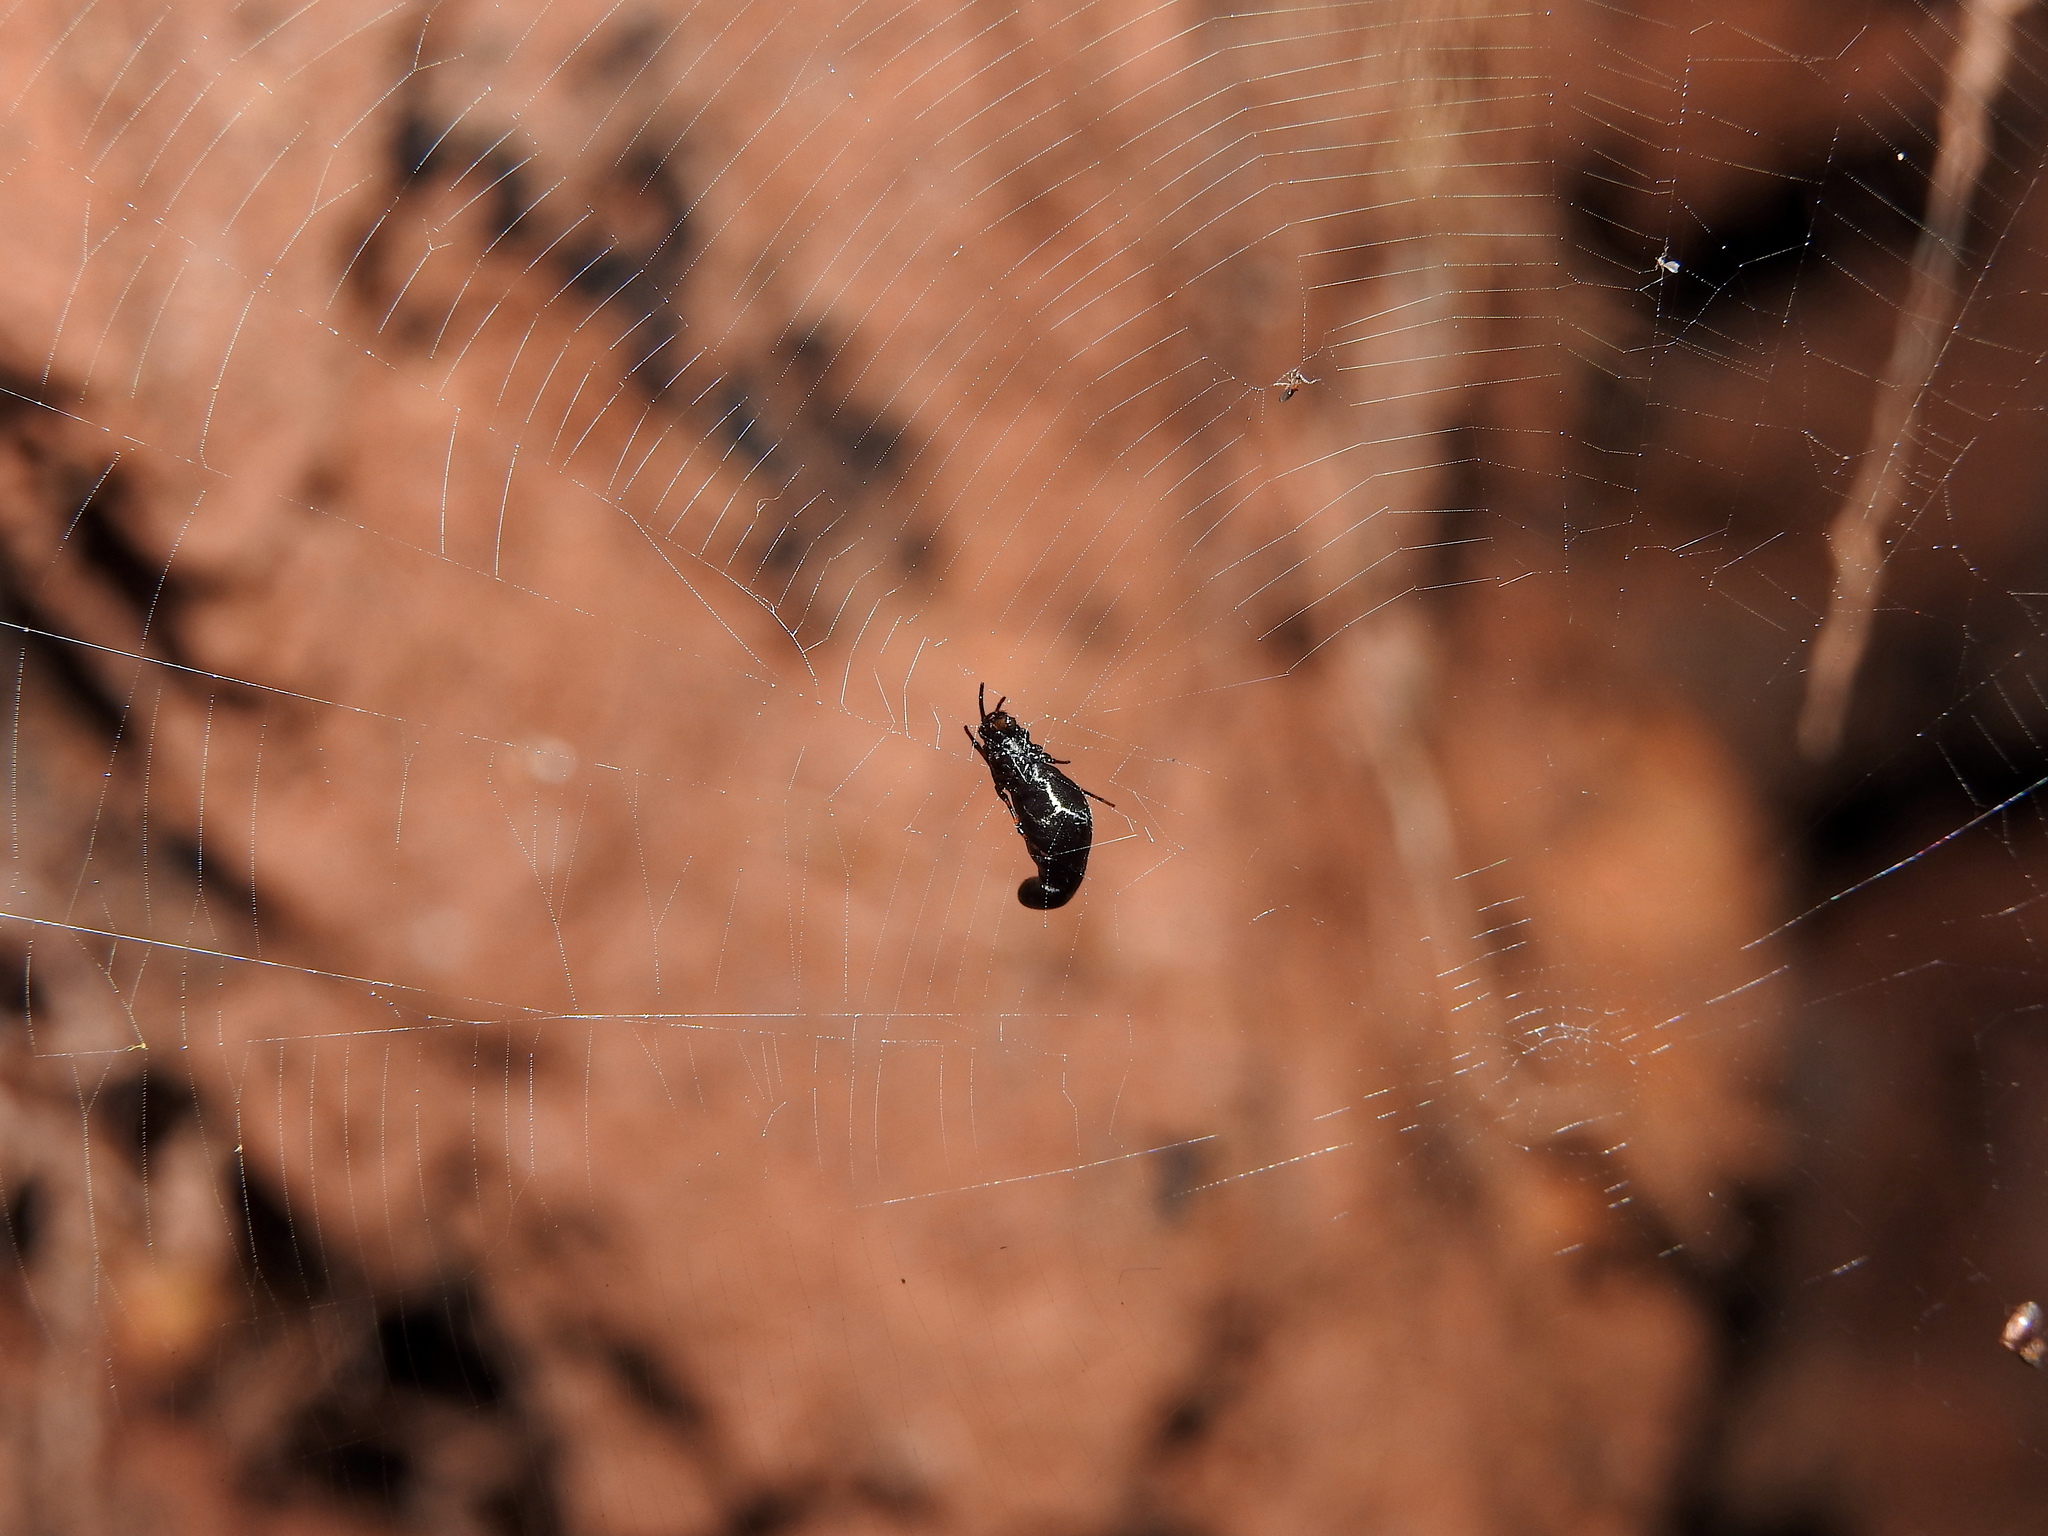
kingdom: Animalia
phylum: Arthropoda
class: Arachnida
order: Araneae
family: Araneidae
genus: Cyclosa
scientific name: Cyclosa bifida
